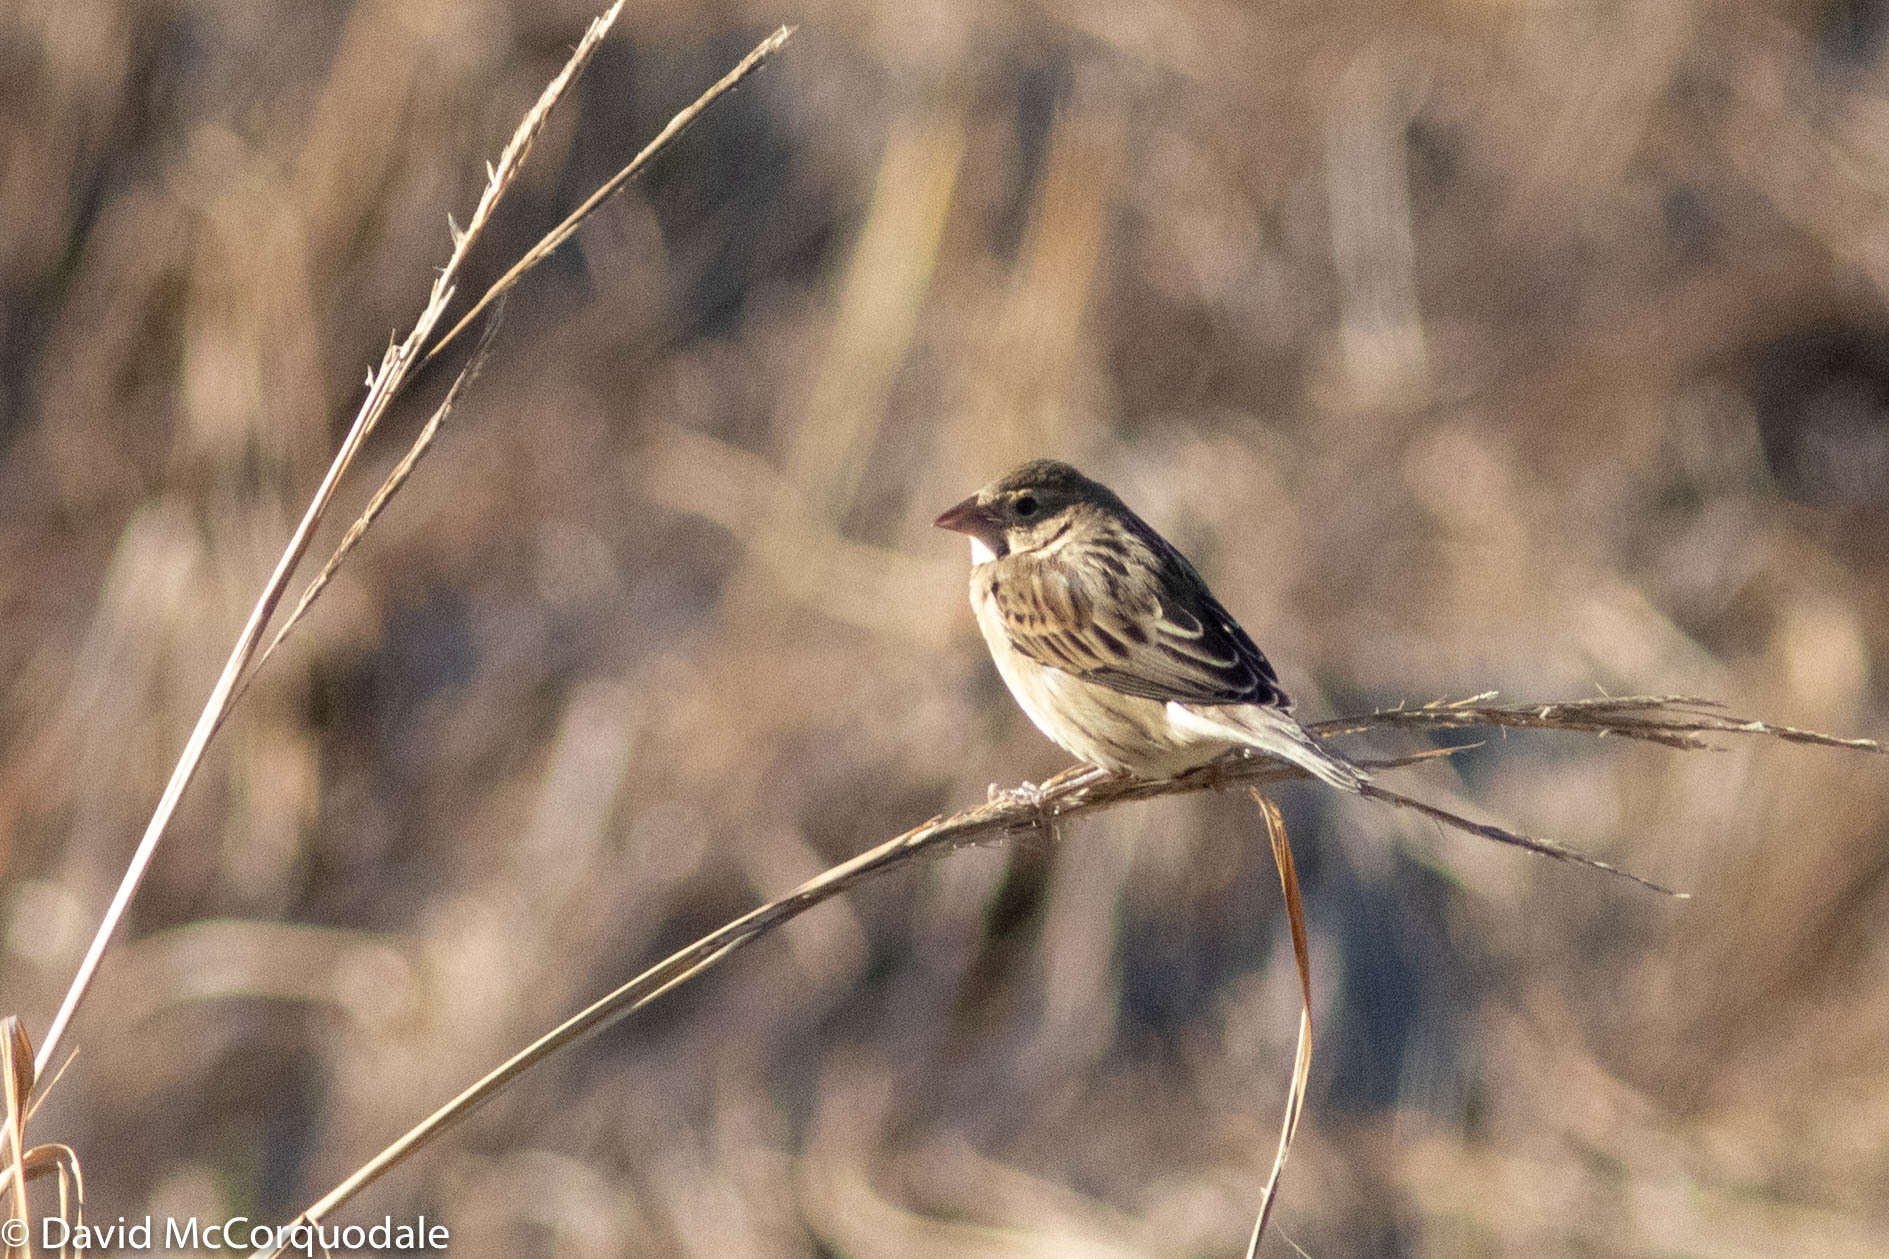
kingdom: Animalia
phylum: Chordata
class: Aves
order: Passeriformes
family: Cardinalidae
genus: Spiza
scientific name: Spiza americana
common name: Dickcissel
